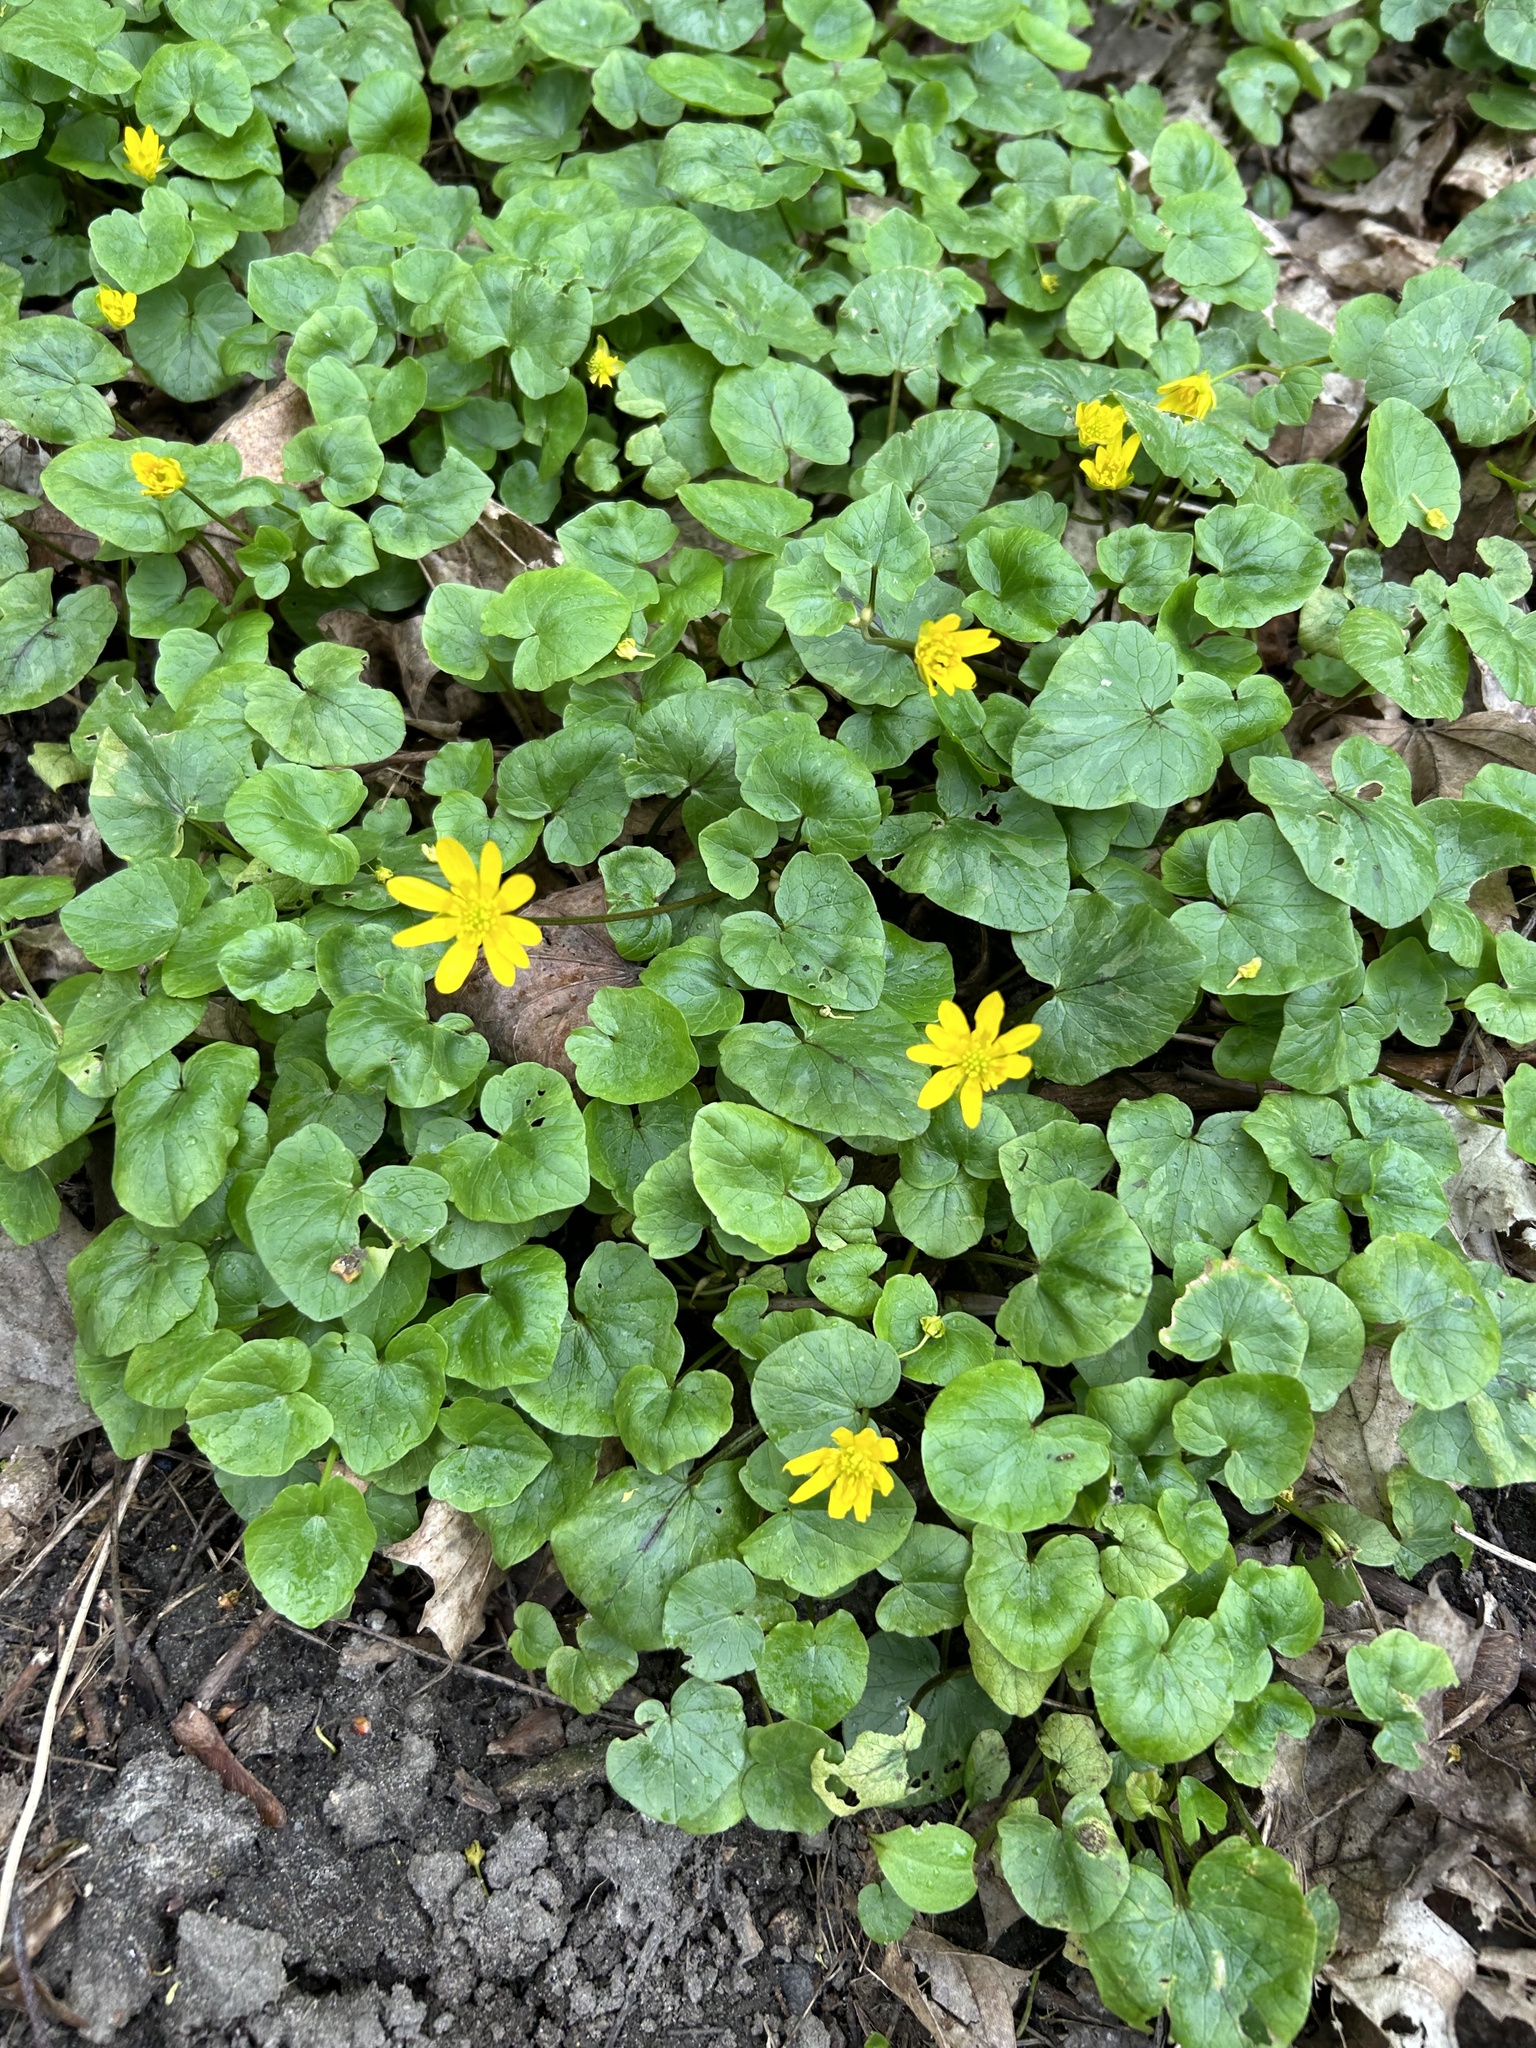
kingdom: Plantae
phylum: Tracheophyta
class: Magnoliopsida
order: Ranunculales
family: Ranunculaceae
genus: Ficaria
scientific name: Ficaria verna
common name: Lesser celandine
